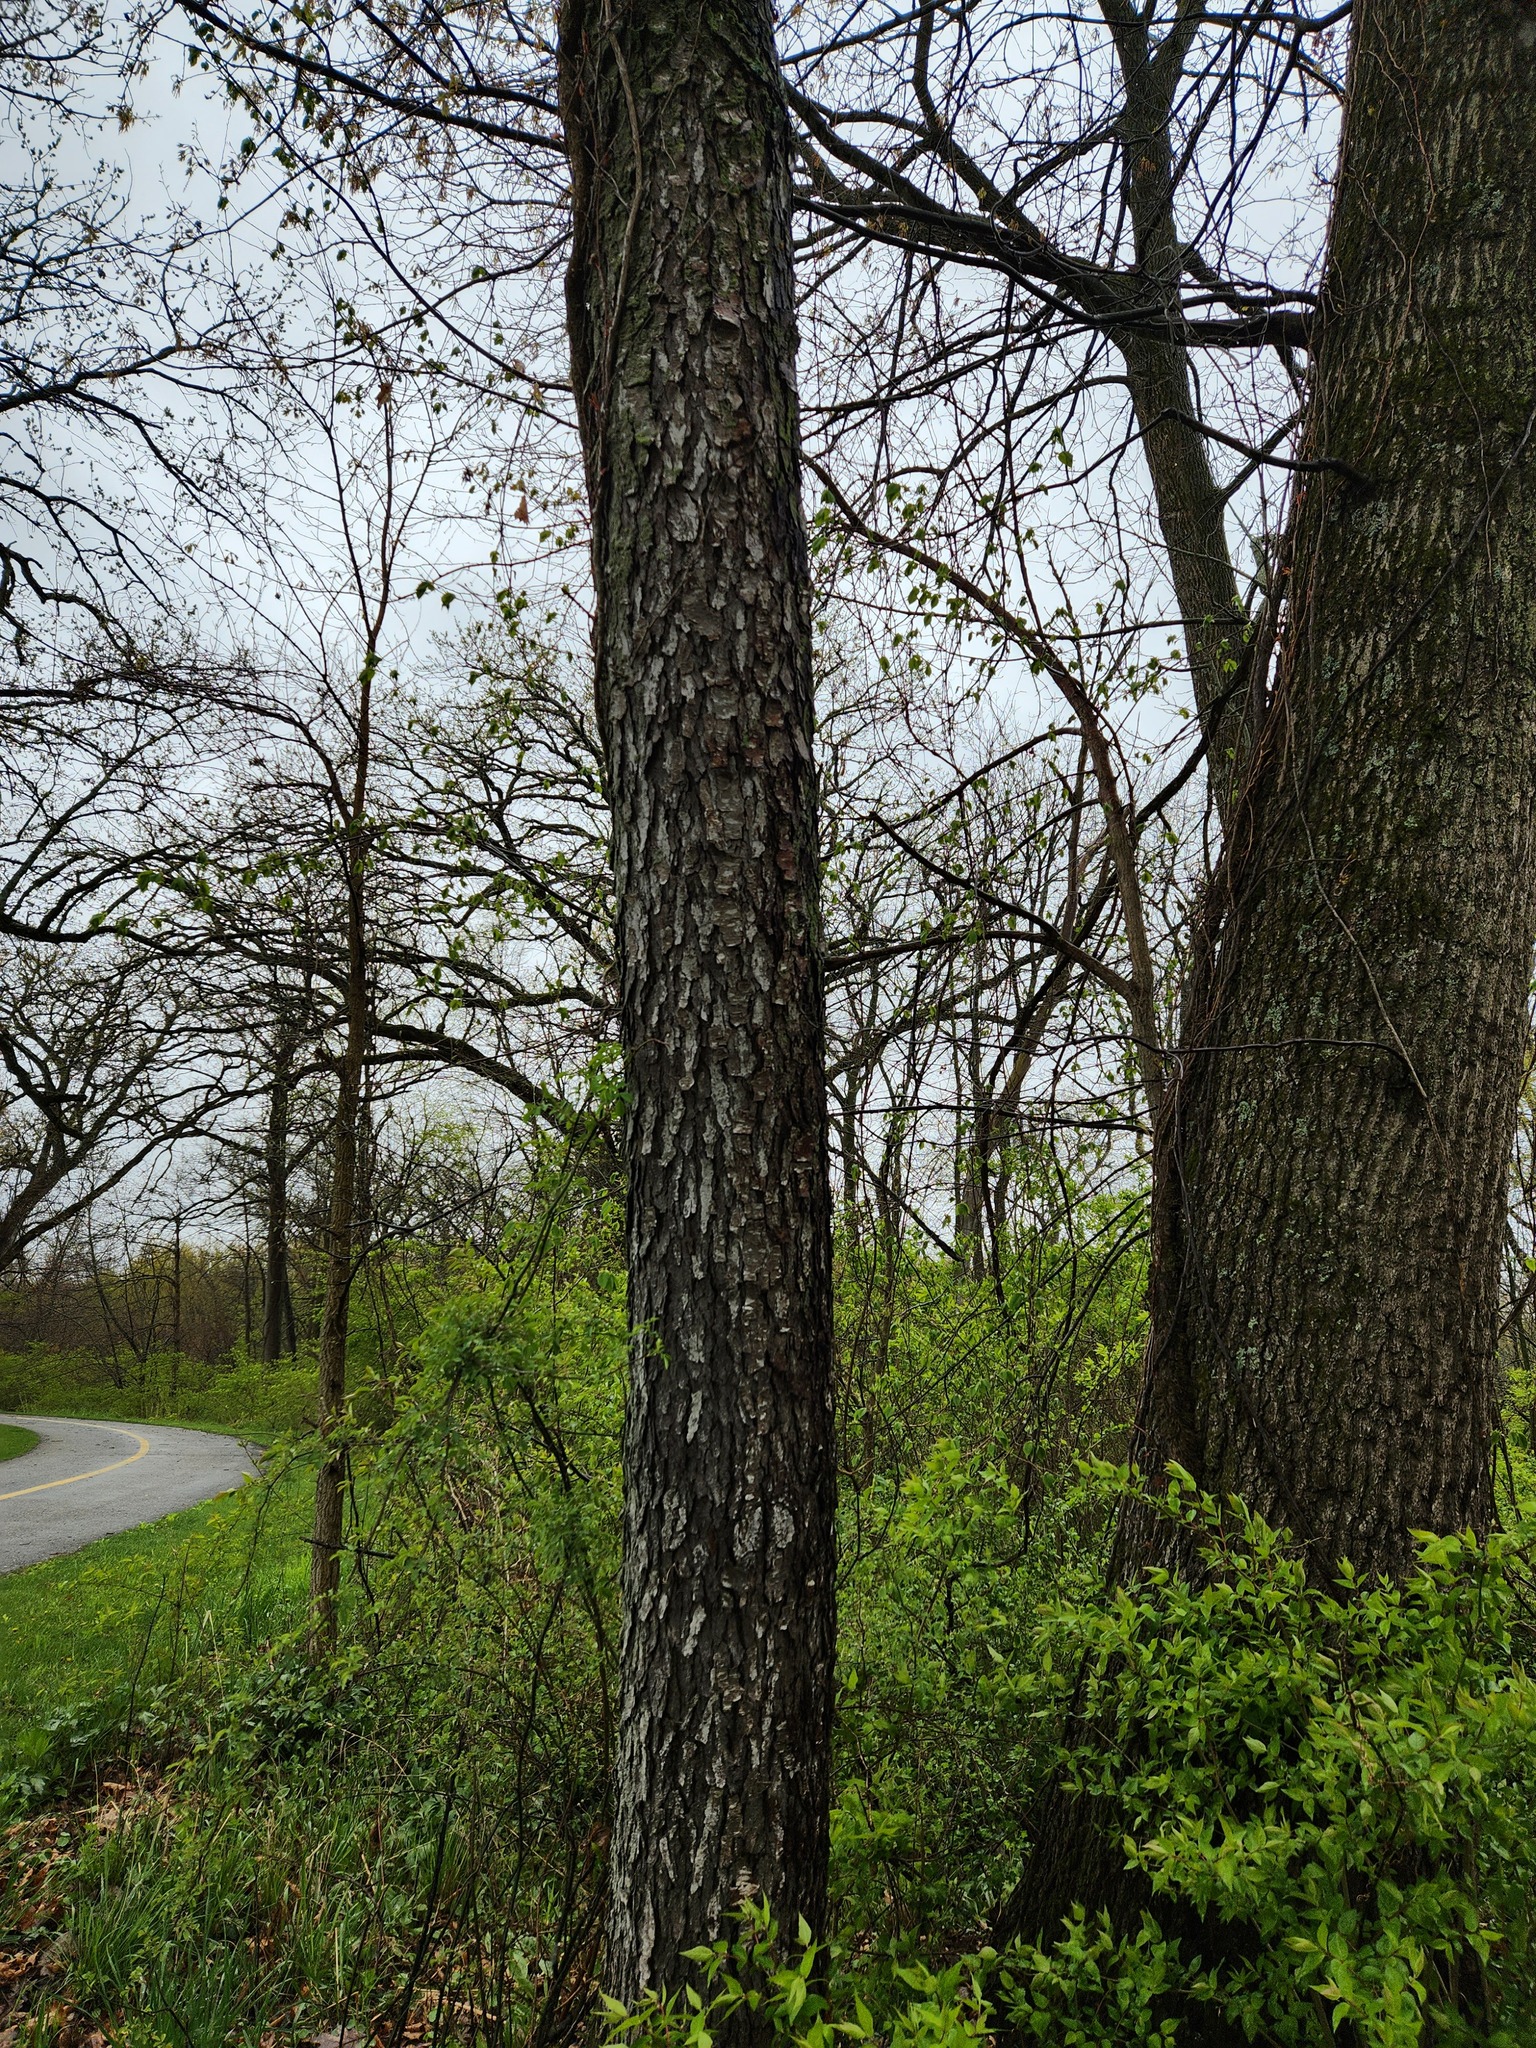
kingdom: Plantae
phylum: Tracheophyta
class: Magnoliopsida
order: Rosales
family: Rosaceae
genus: Prunus
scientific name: Prunus serotina
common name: Black cherry
